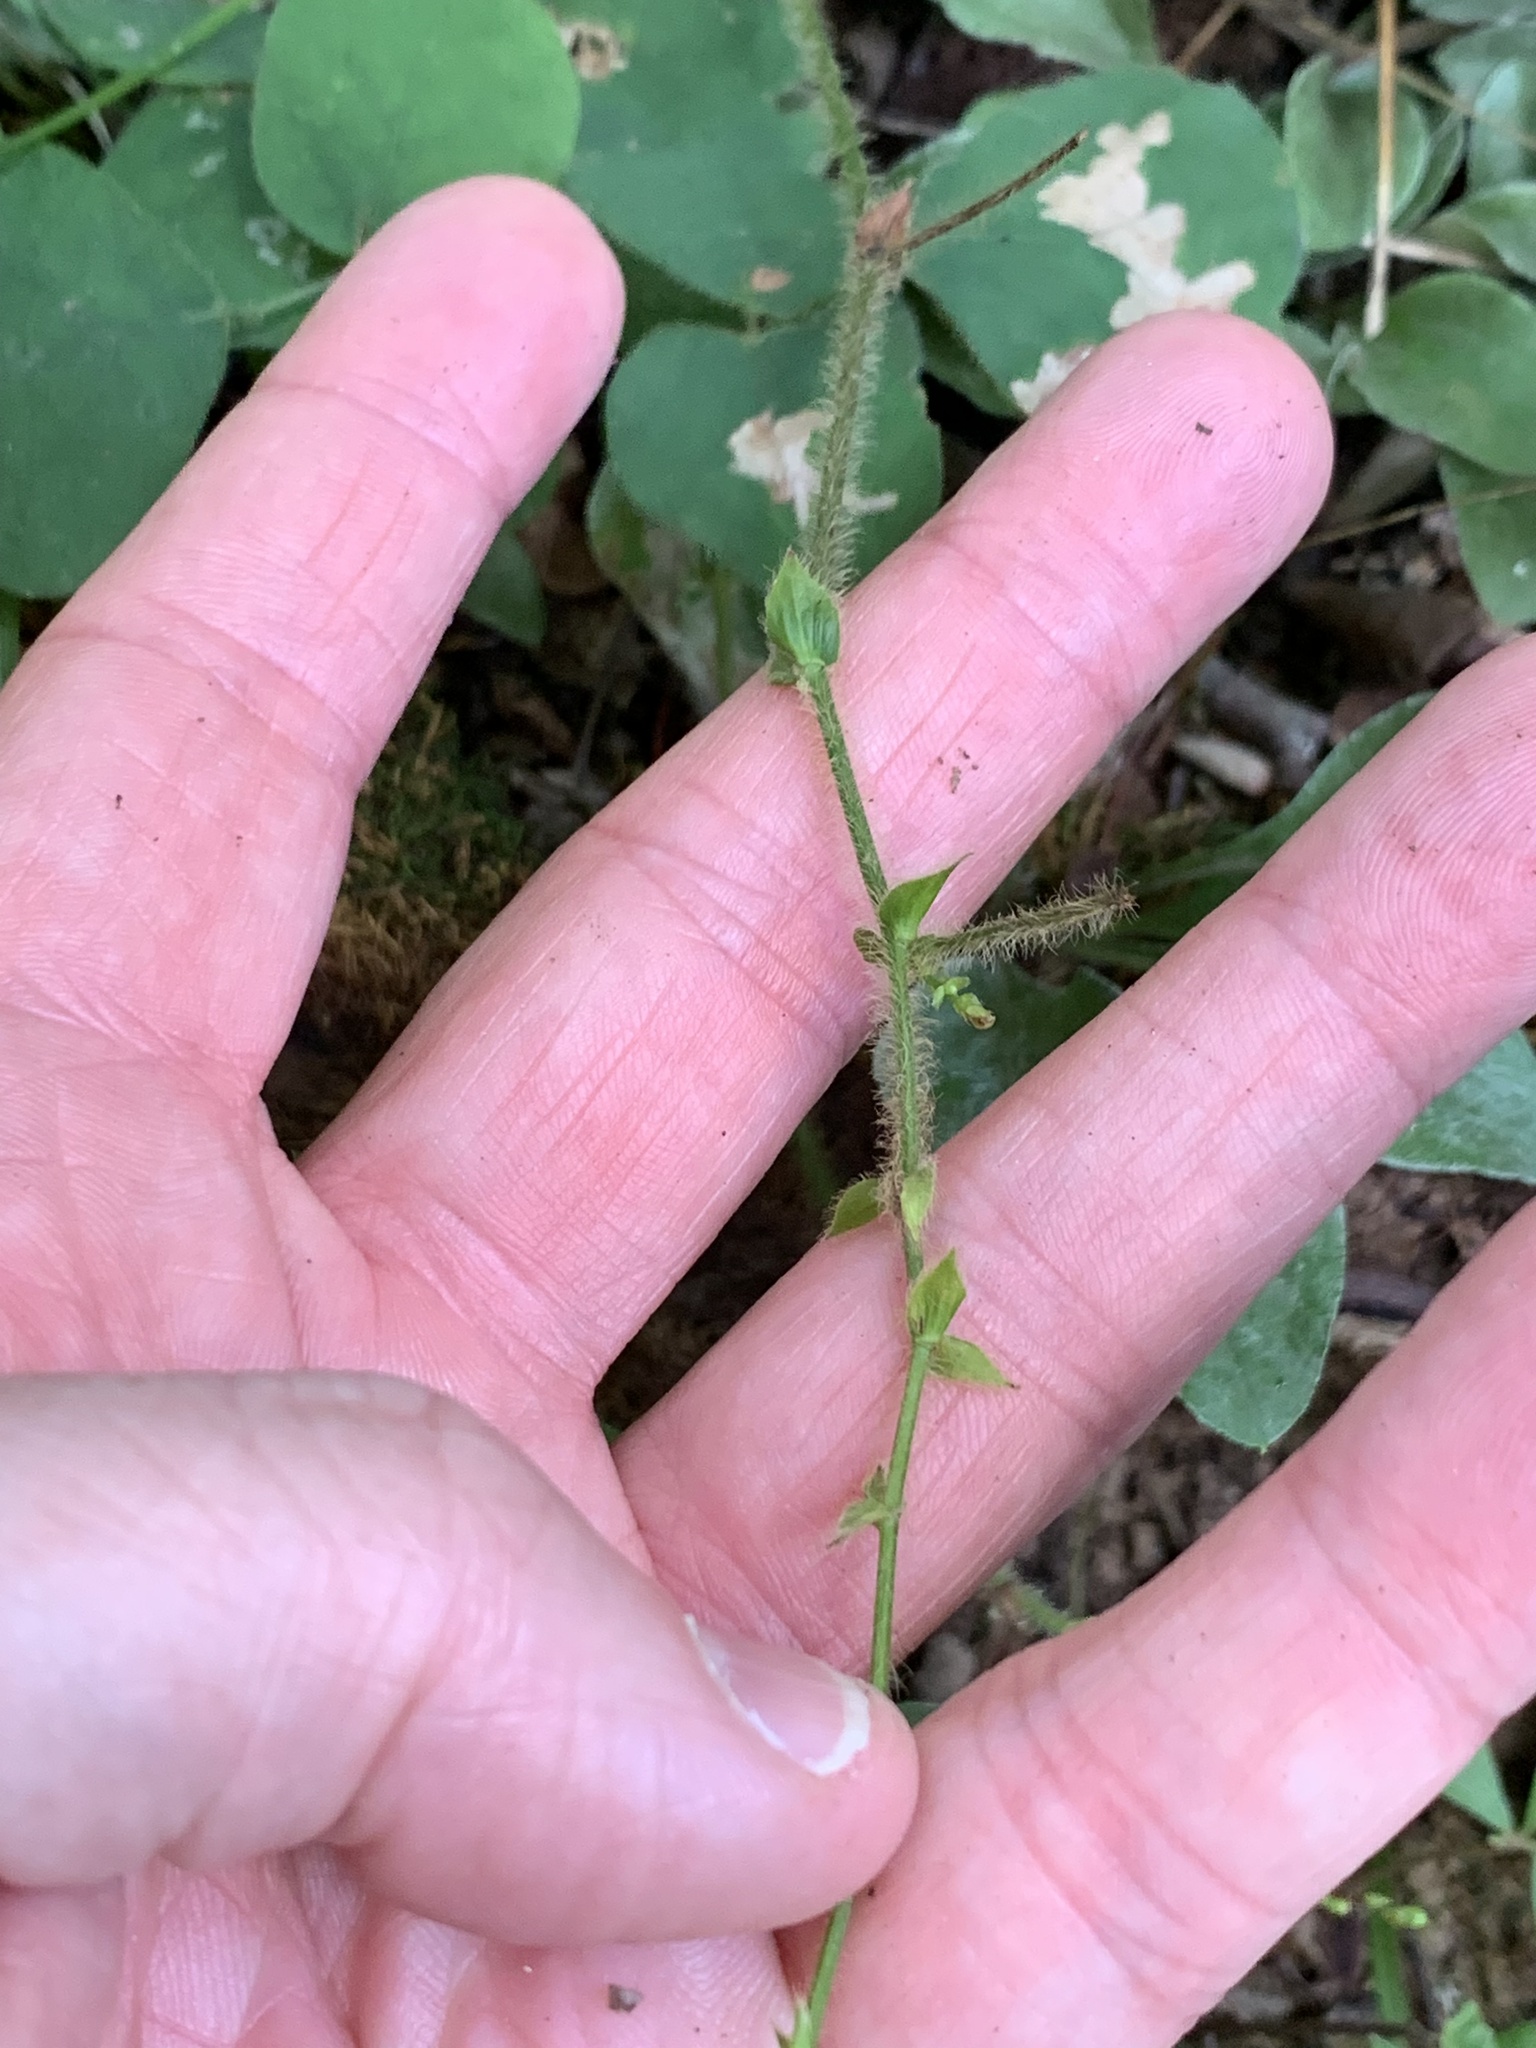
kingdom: Plantae
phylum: Tracheophyta
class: Magnoliopsida
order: Fabales
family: Fabaceae
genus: Desmodium
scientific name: Desmodium rotundifolium
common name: Dollarleaf
